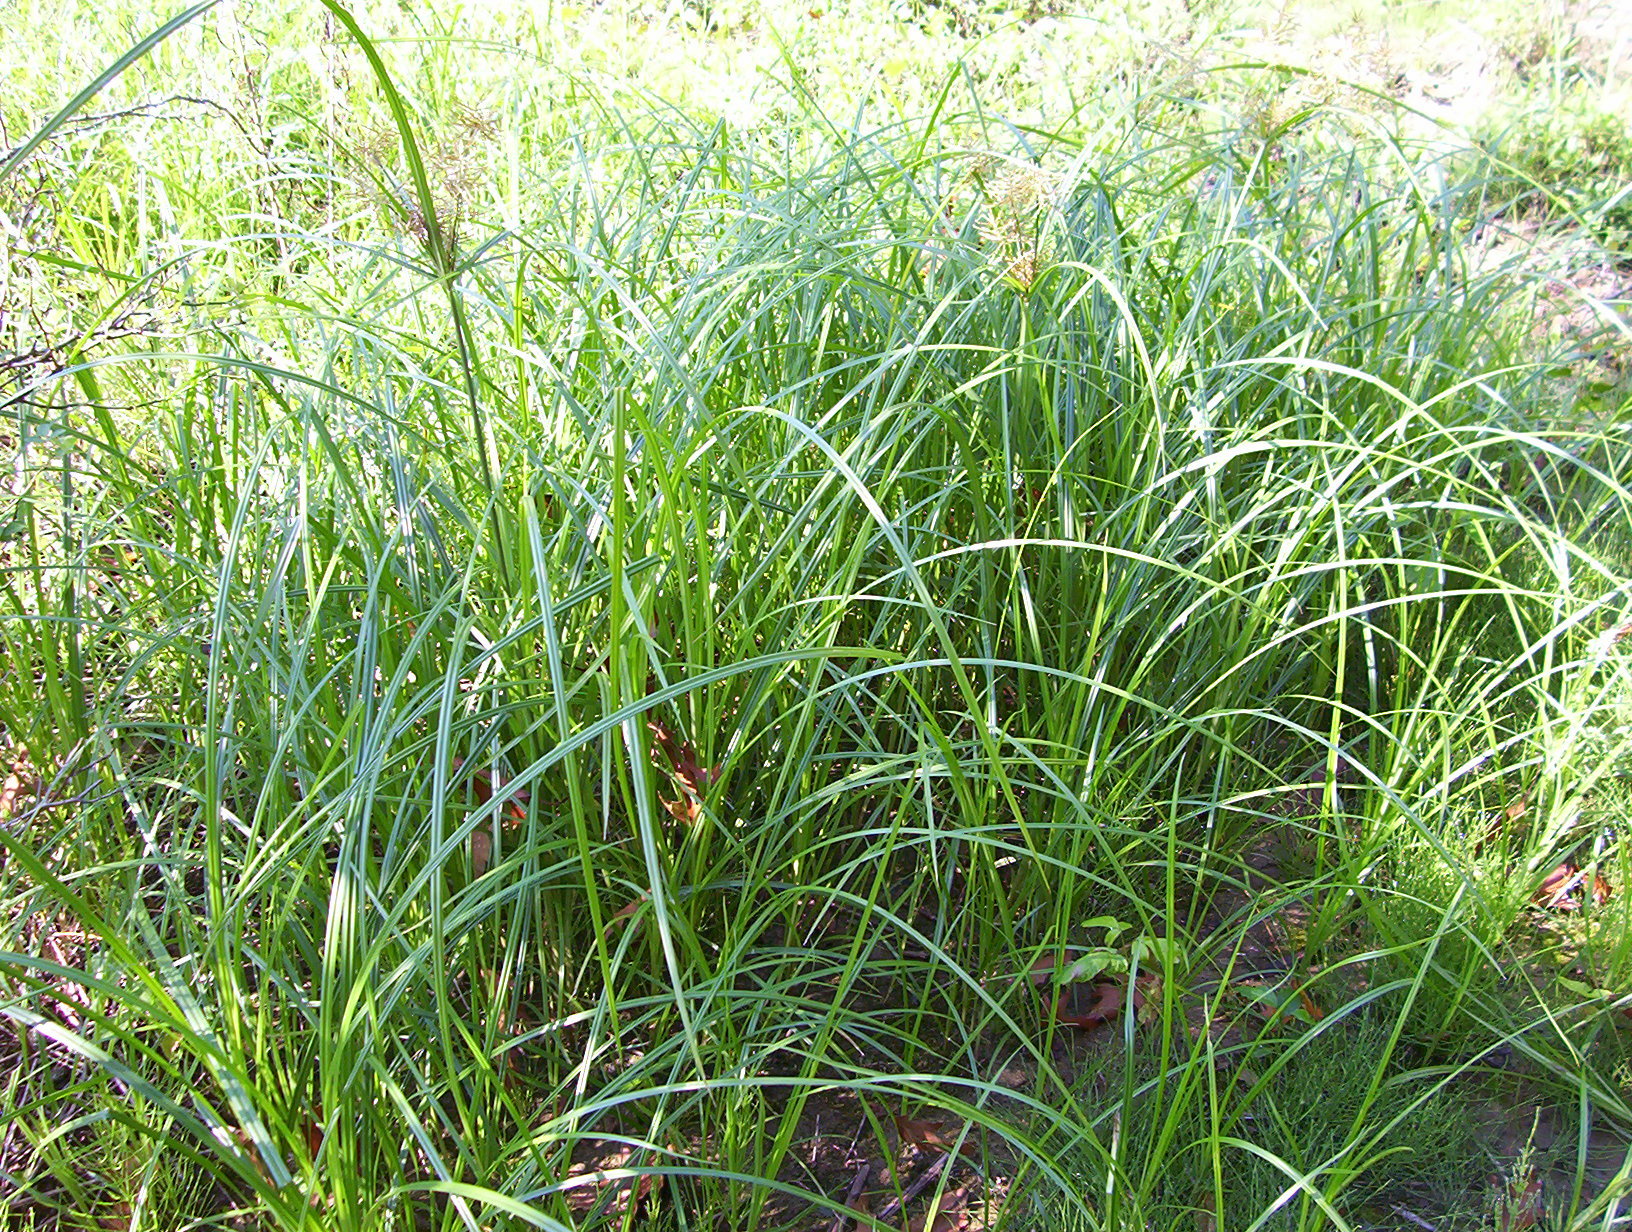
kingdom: Plantae
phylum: Tracheophyta
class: Liliopsida
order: Poales
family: Cyperaceae
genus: Cyperus
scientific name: Cyperus erythrorhizos
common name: Red-root flat sedge
